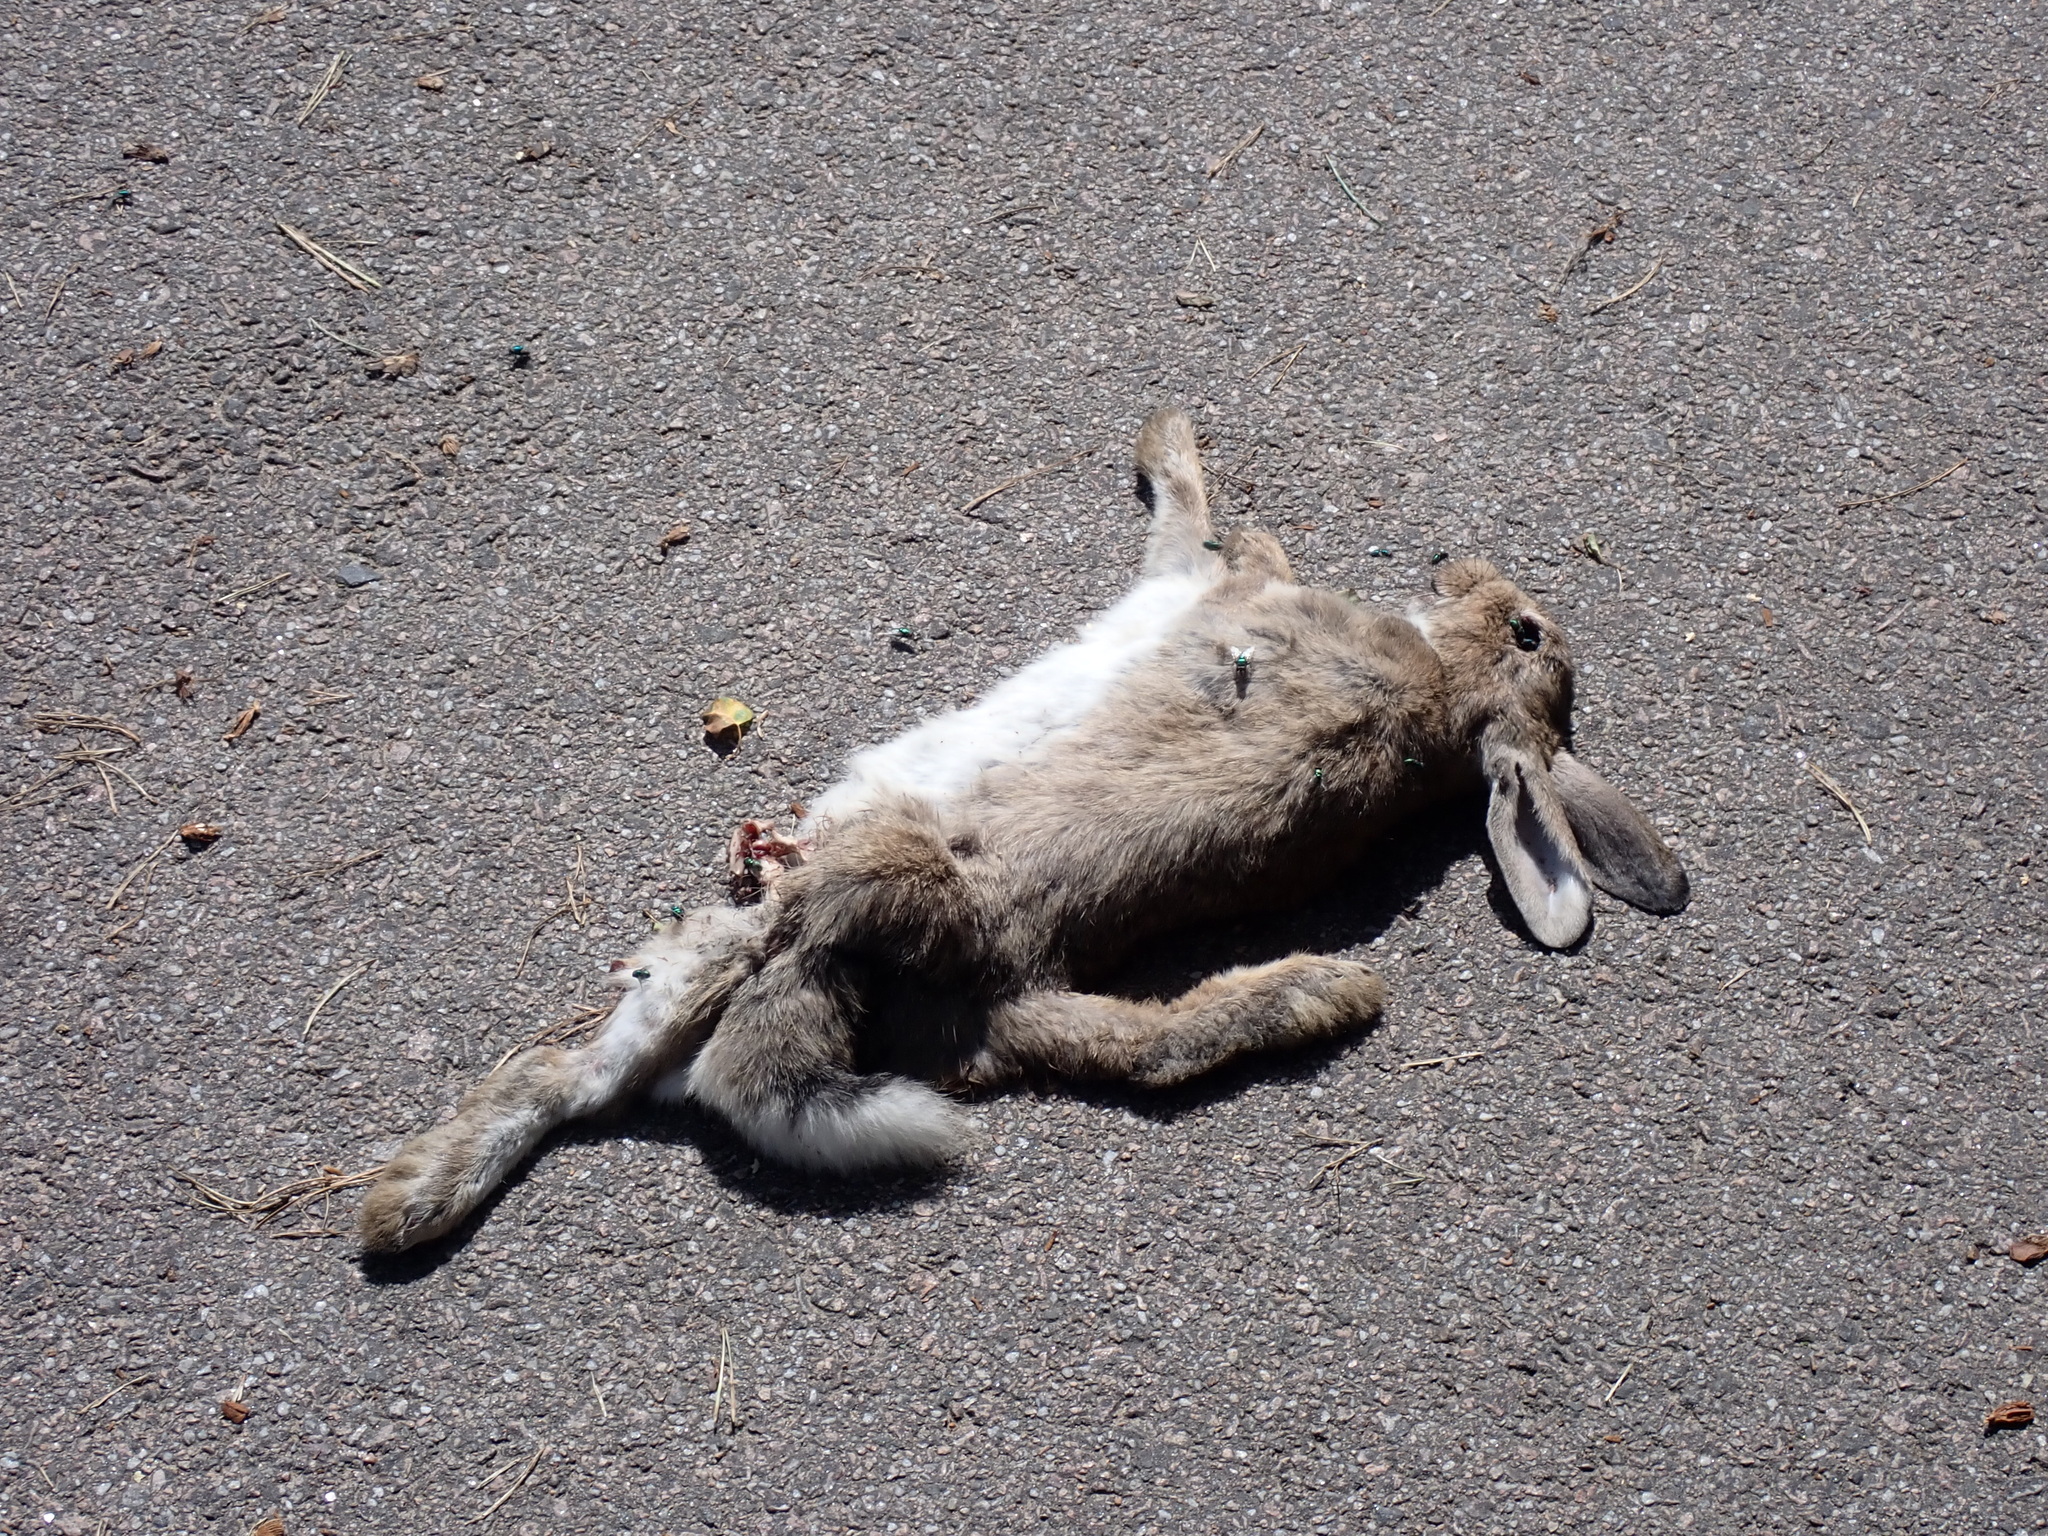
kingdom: Animalia
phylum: Chordata
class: Mammalia
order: Lagomorpha
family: Leporidae
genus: Oryctolagus
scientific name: Oryctolagus cuniculus
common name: European rabbit
